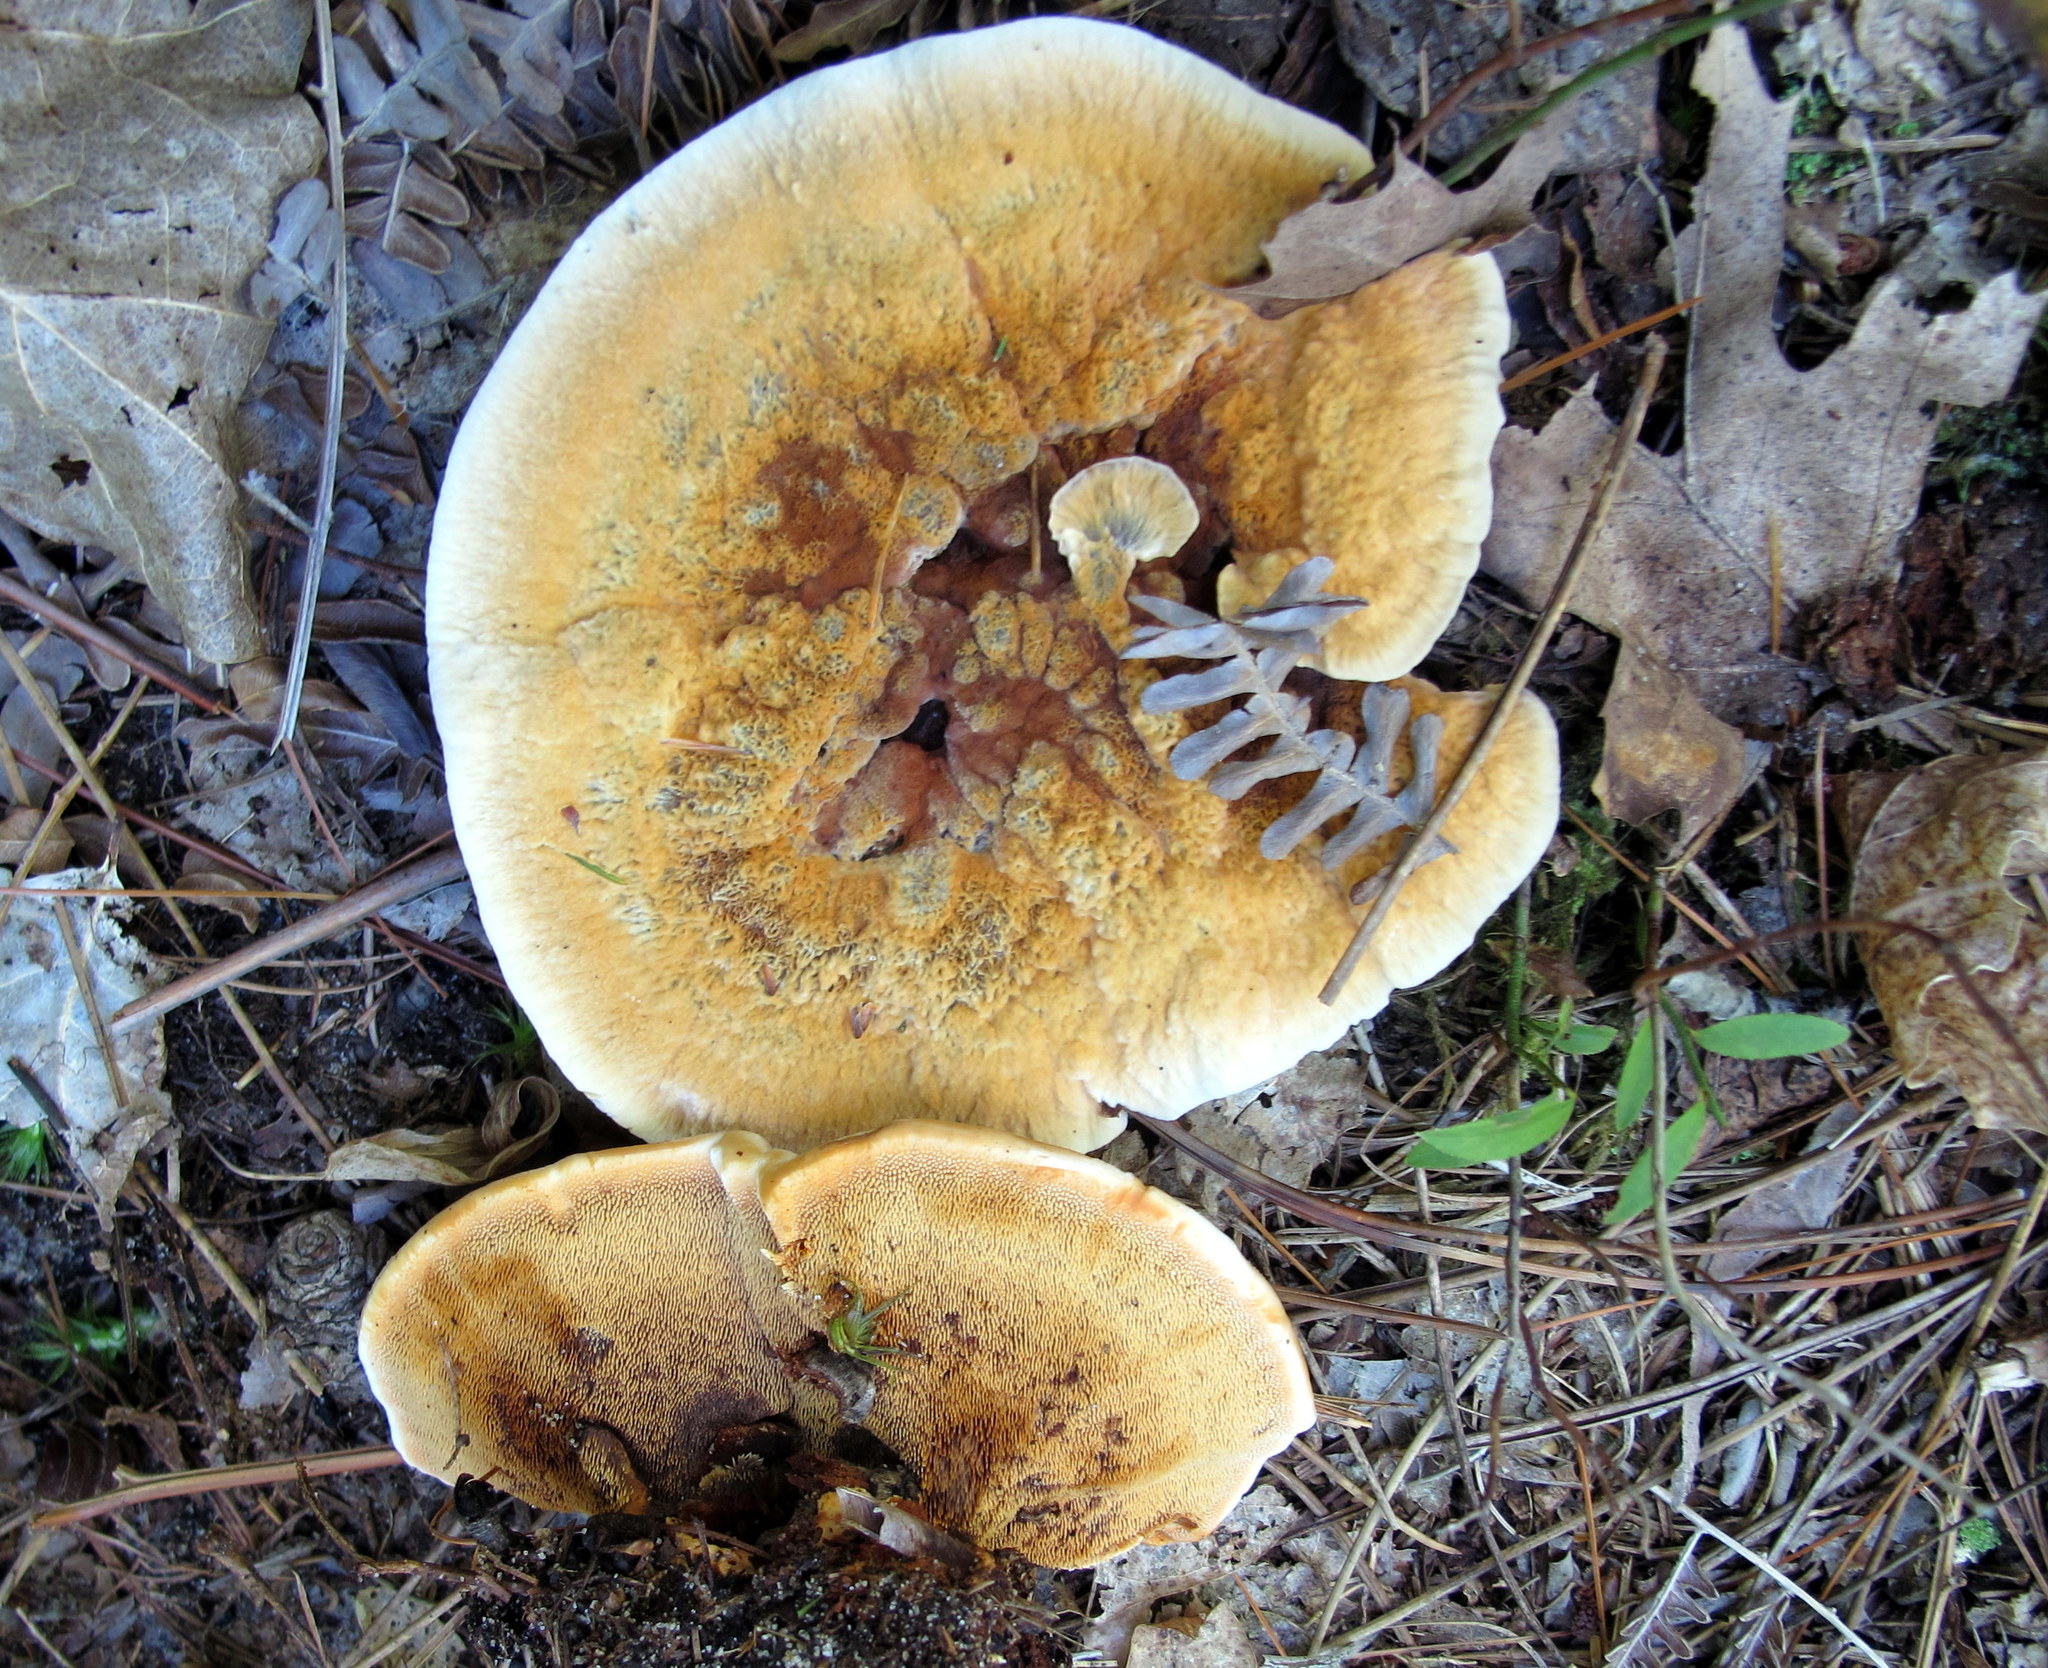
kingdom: Fungi
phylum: Basidiomycota
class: Agaricomycetes
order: Thelephorales
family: Bankeraceae
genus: Hydnellum
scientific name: Hydnellum aurantiacum
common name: Orange tooth
